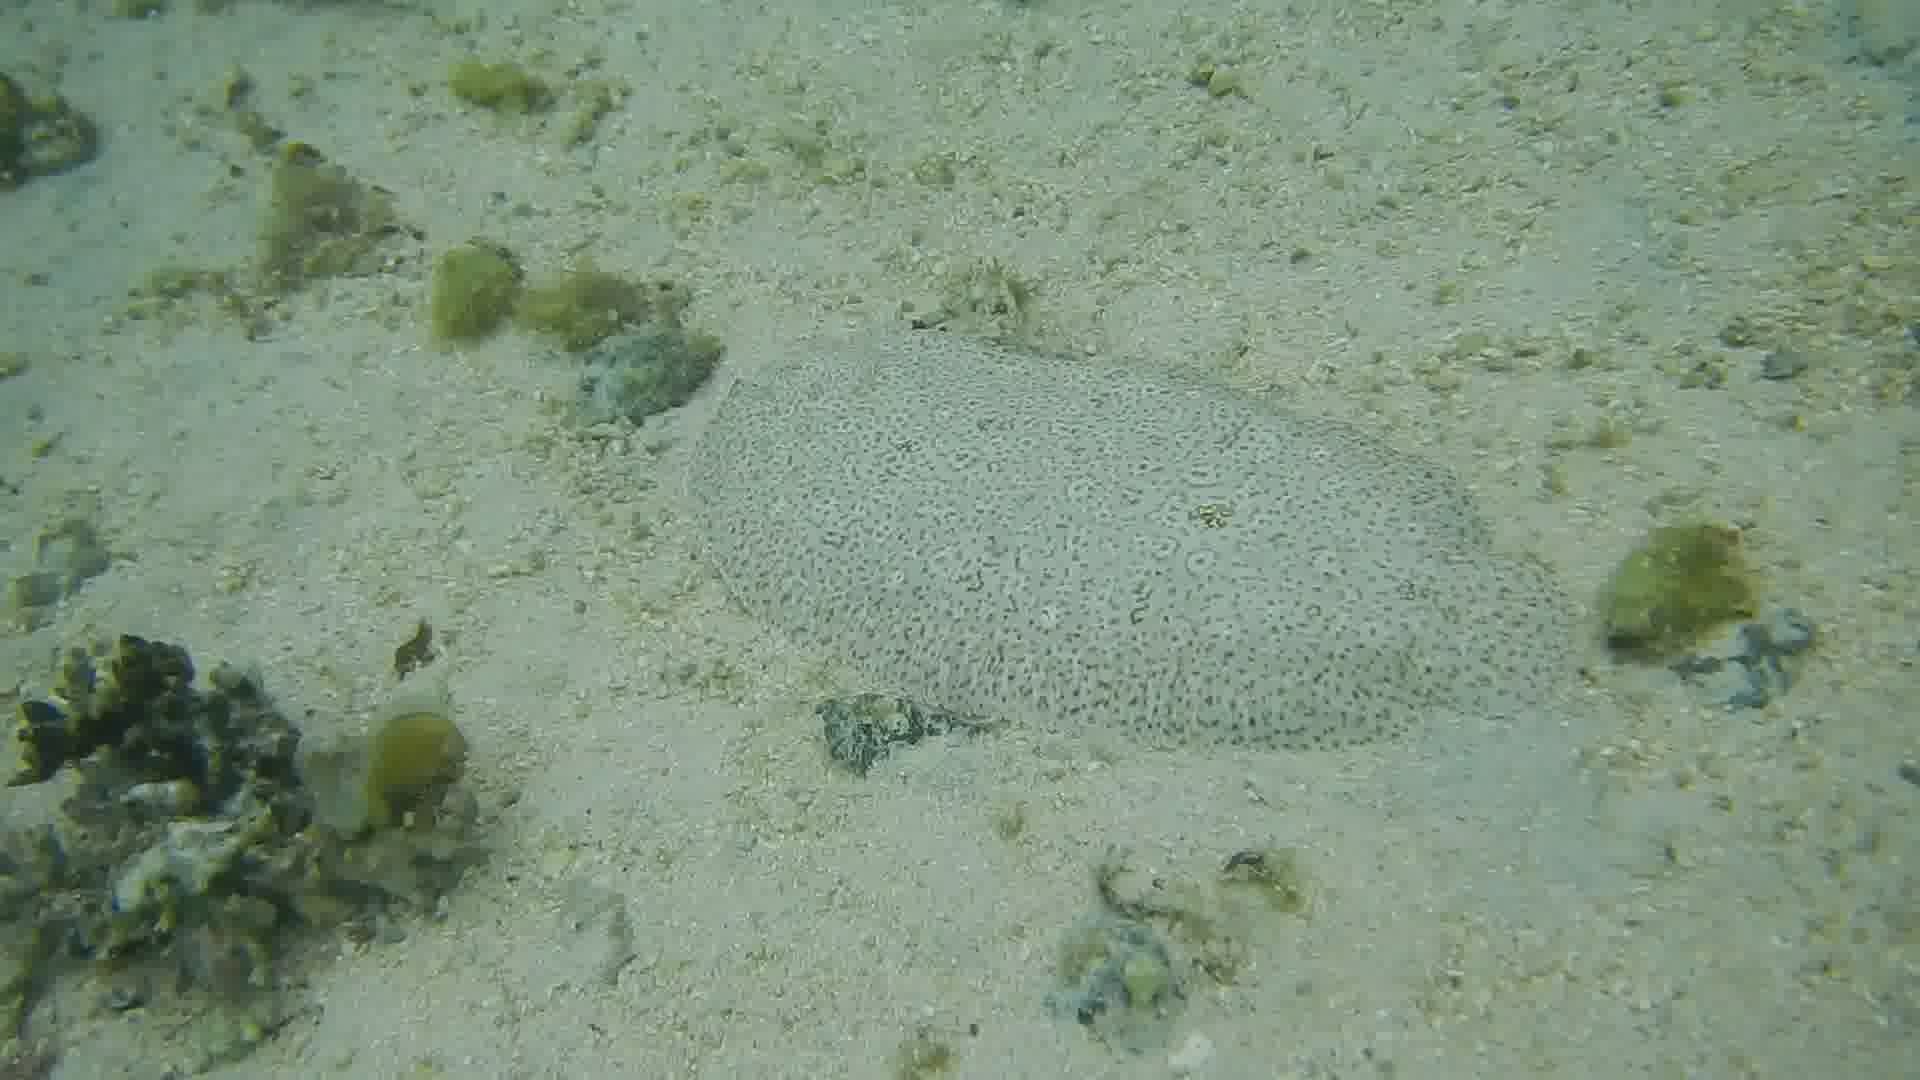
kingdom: Animalia
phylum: Chordata
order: Pleuronectiformes
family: Soleidae
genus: Pardachirus
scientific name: Pardachirus marmoratus
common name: Finless sole
